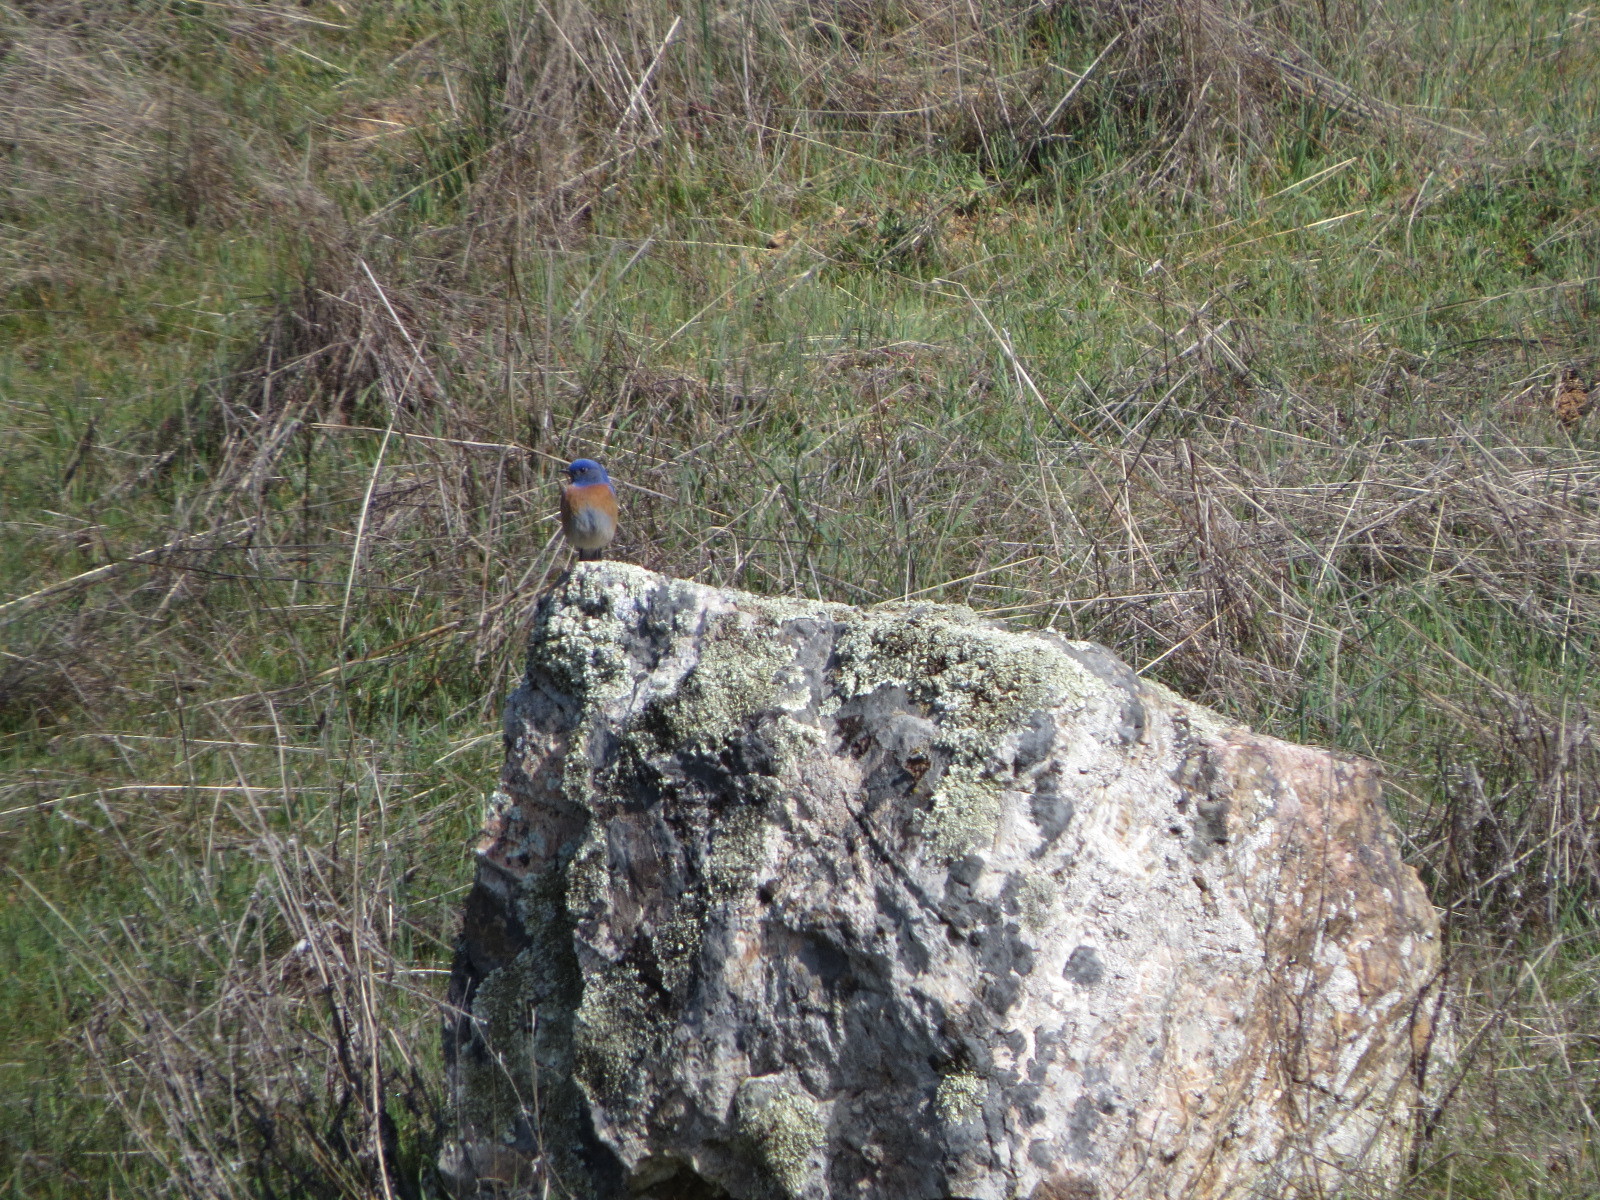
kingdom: Animalia
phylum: Chordata
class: Aves
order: Passeriformes
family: Turdidae
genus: Sialia
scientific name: Sialia mexicana
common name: Western bluebird
